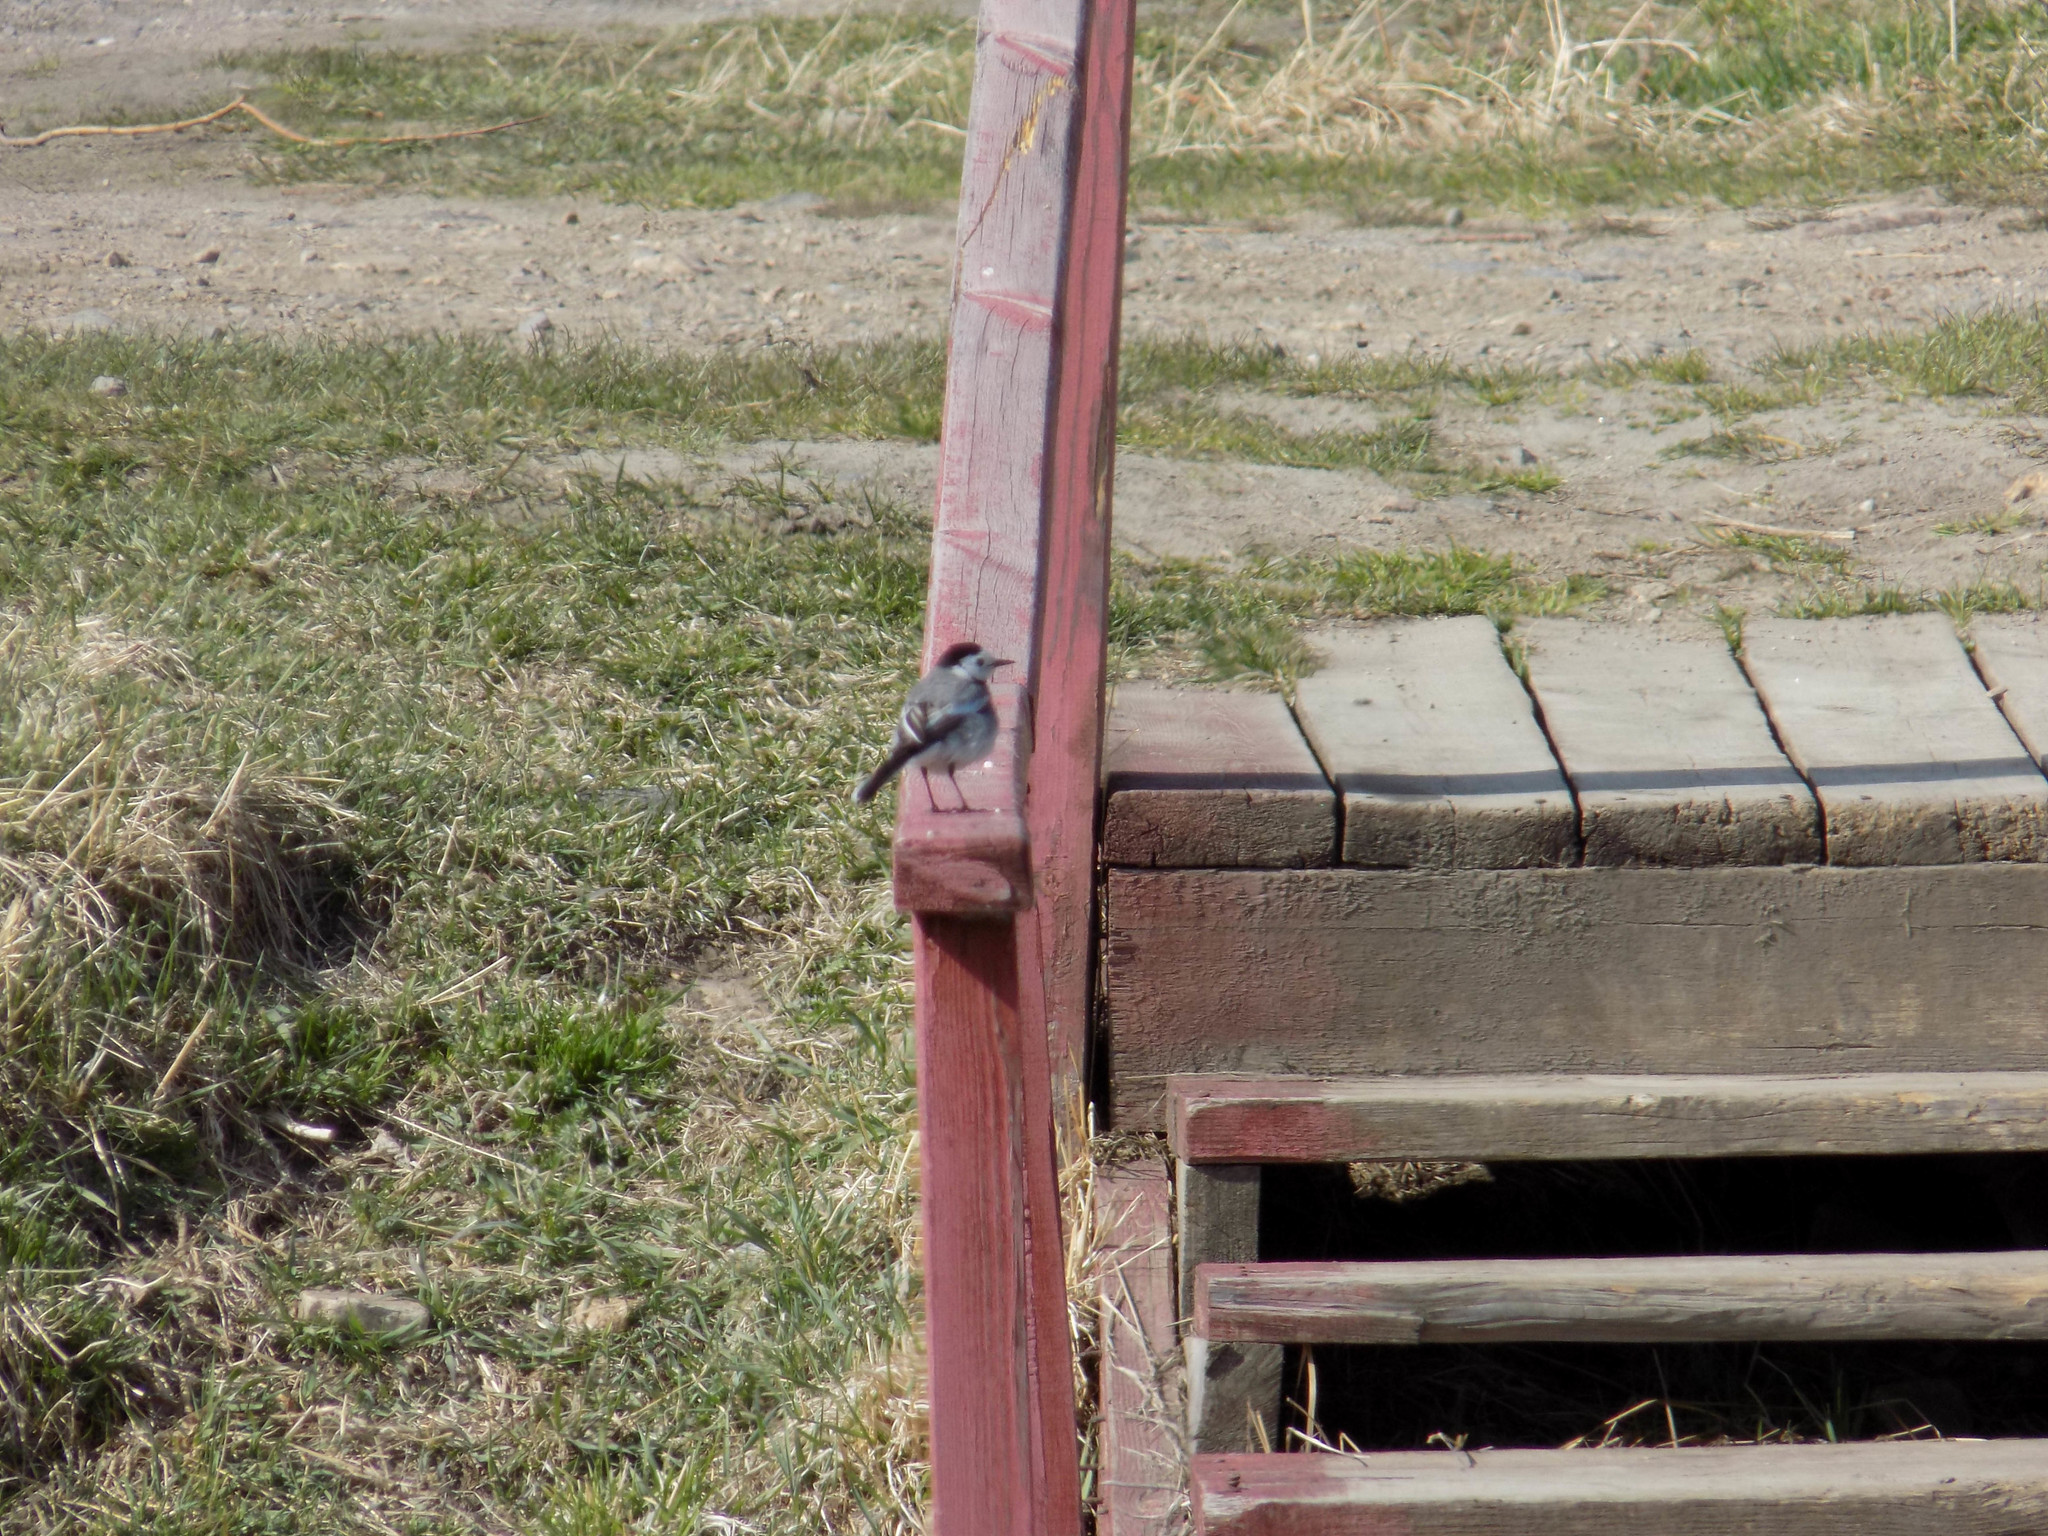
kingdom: Animalia
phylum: Chordata
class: Aves
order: Passeriformes
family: Motacillidae
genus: Motacilla
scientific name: Motacilla alba
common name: White wagtail
